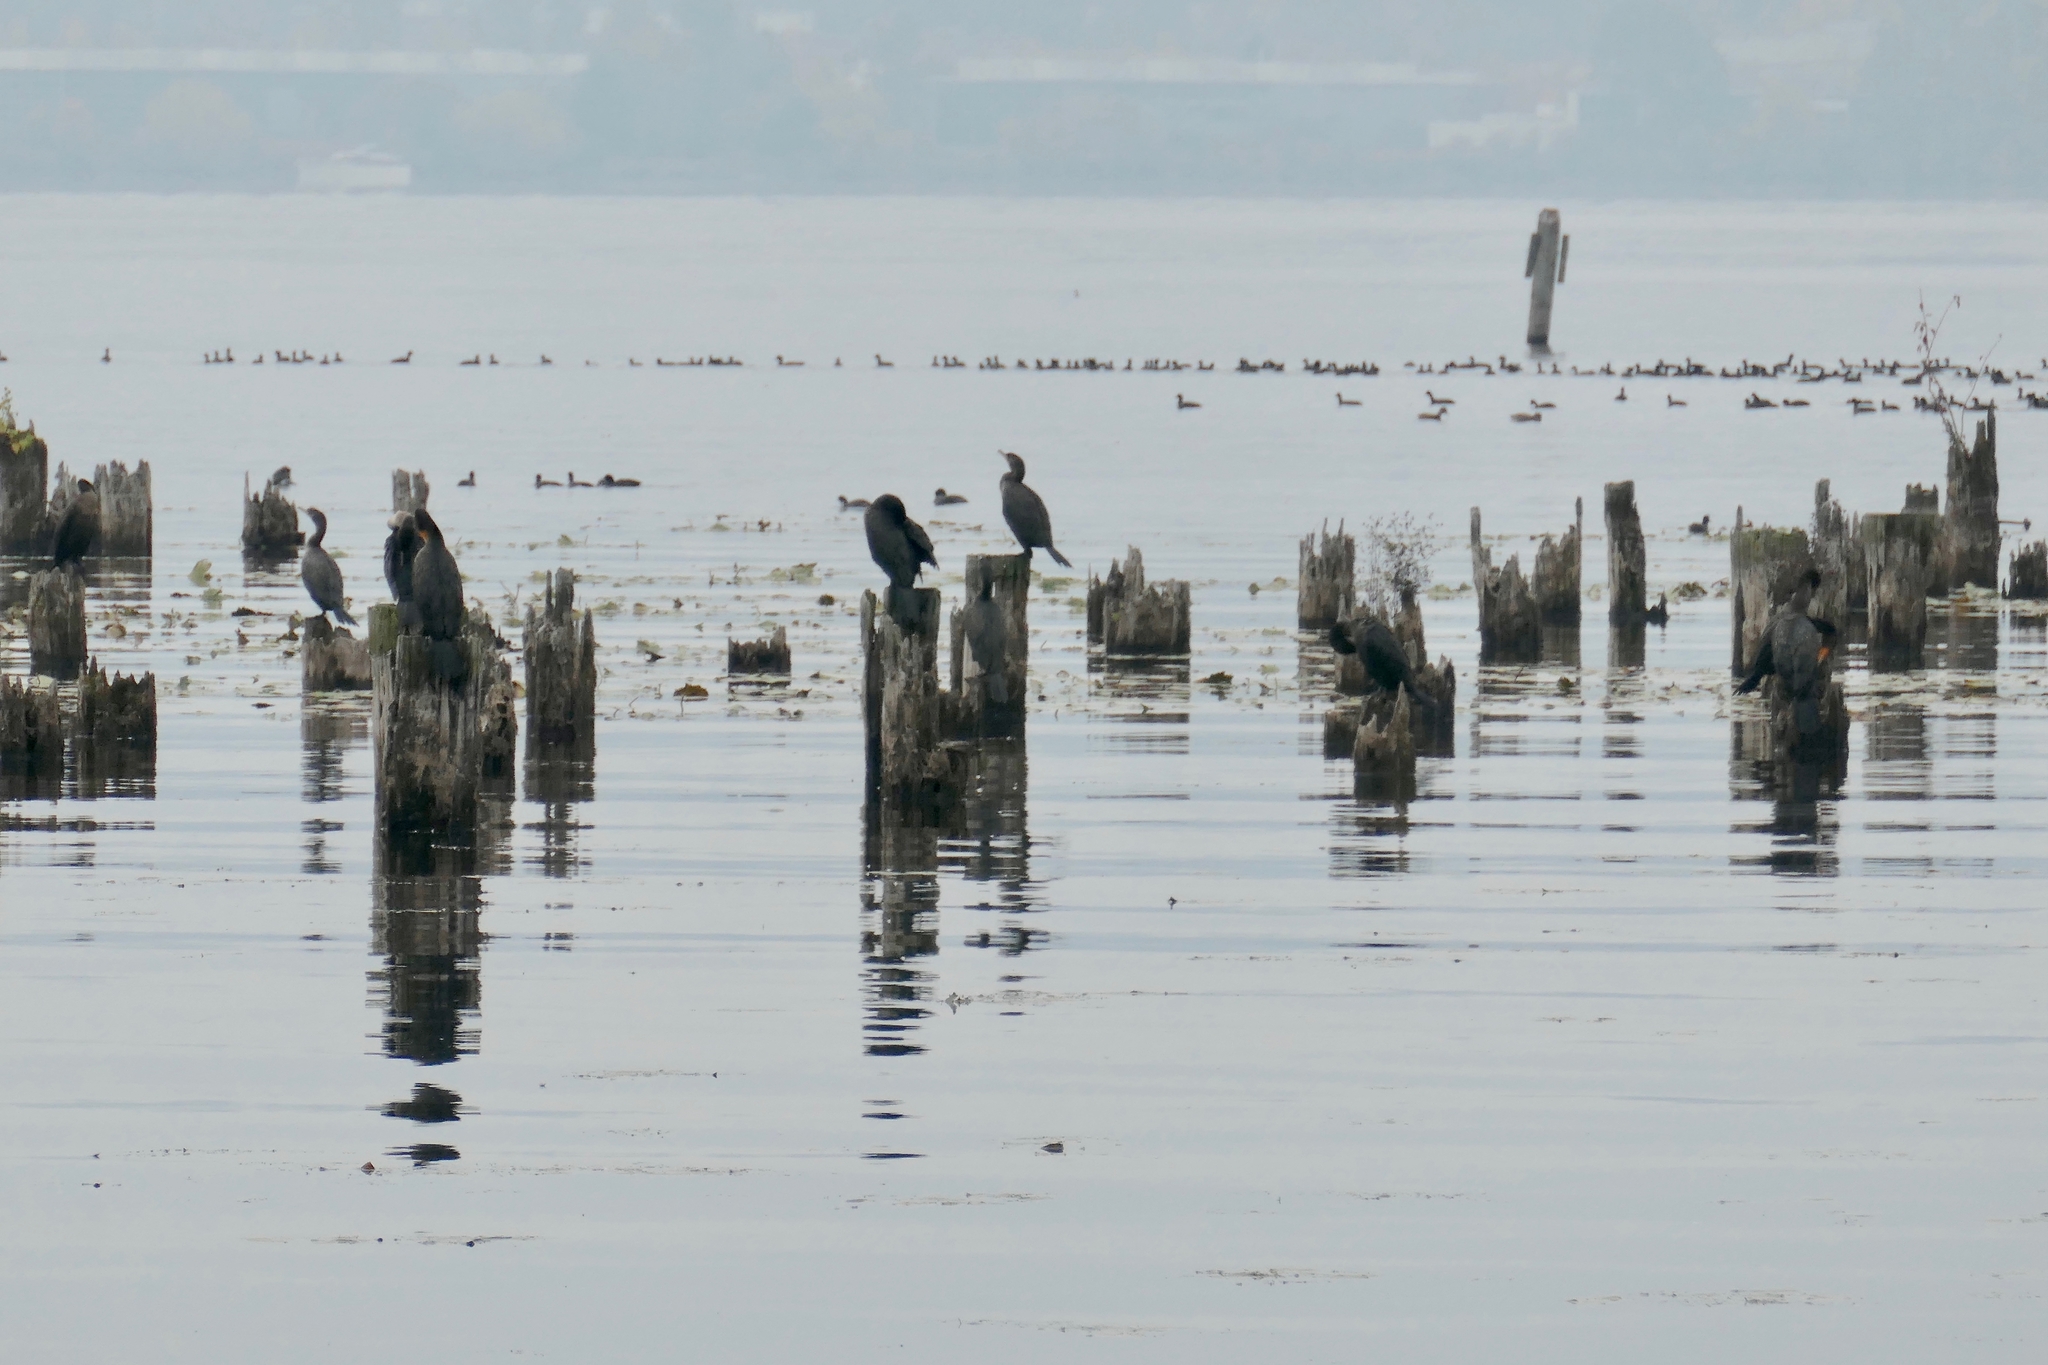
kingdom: Animalia
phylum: Chordata
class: Aves
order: Suliformes
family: Phalacrocoracidae
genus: Phalacrocorax
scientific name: Phalacrocorax auritus
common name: Double-crested cormorant
